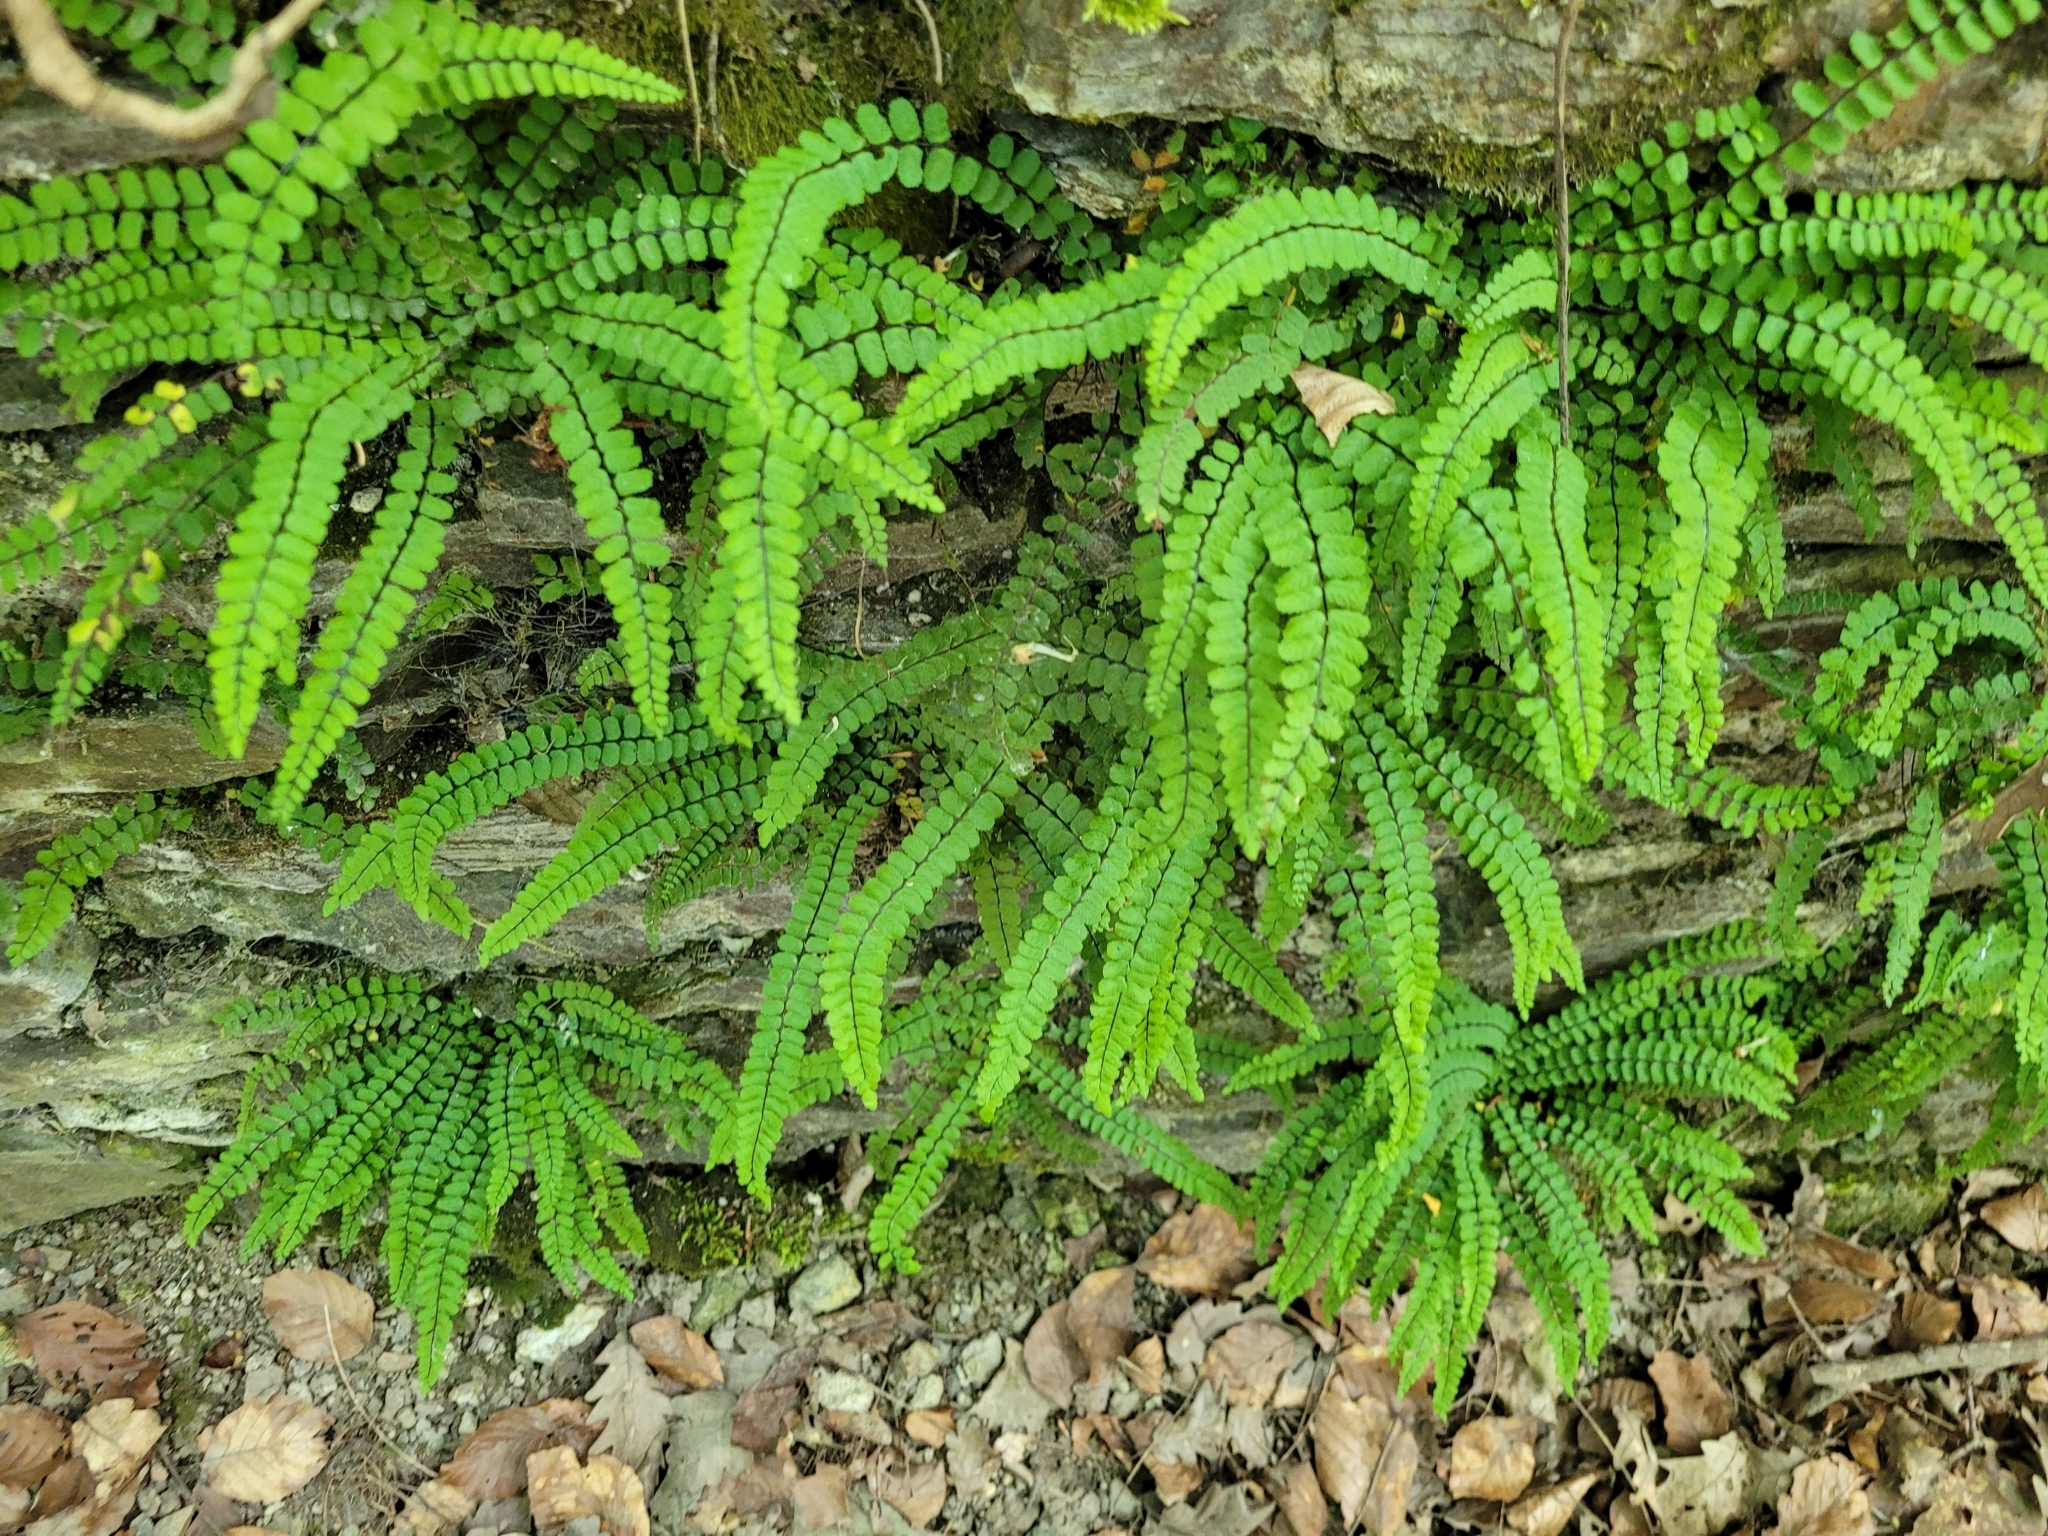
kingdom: Plantae
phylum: Tracheophyta
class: Polypodiopsida
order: Polypodiales
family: Aspleniaceae
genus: Asplenium
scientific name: Asplenium trichomanes
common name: Maidenhair spleenwort
